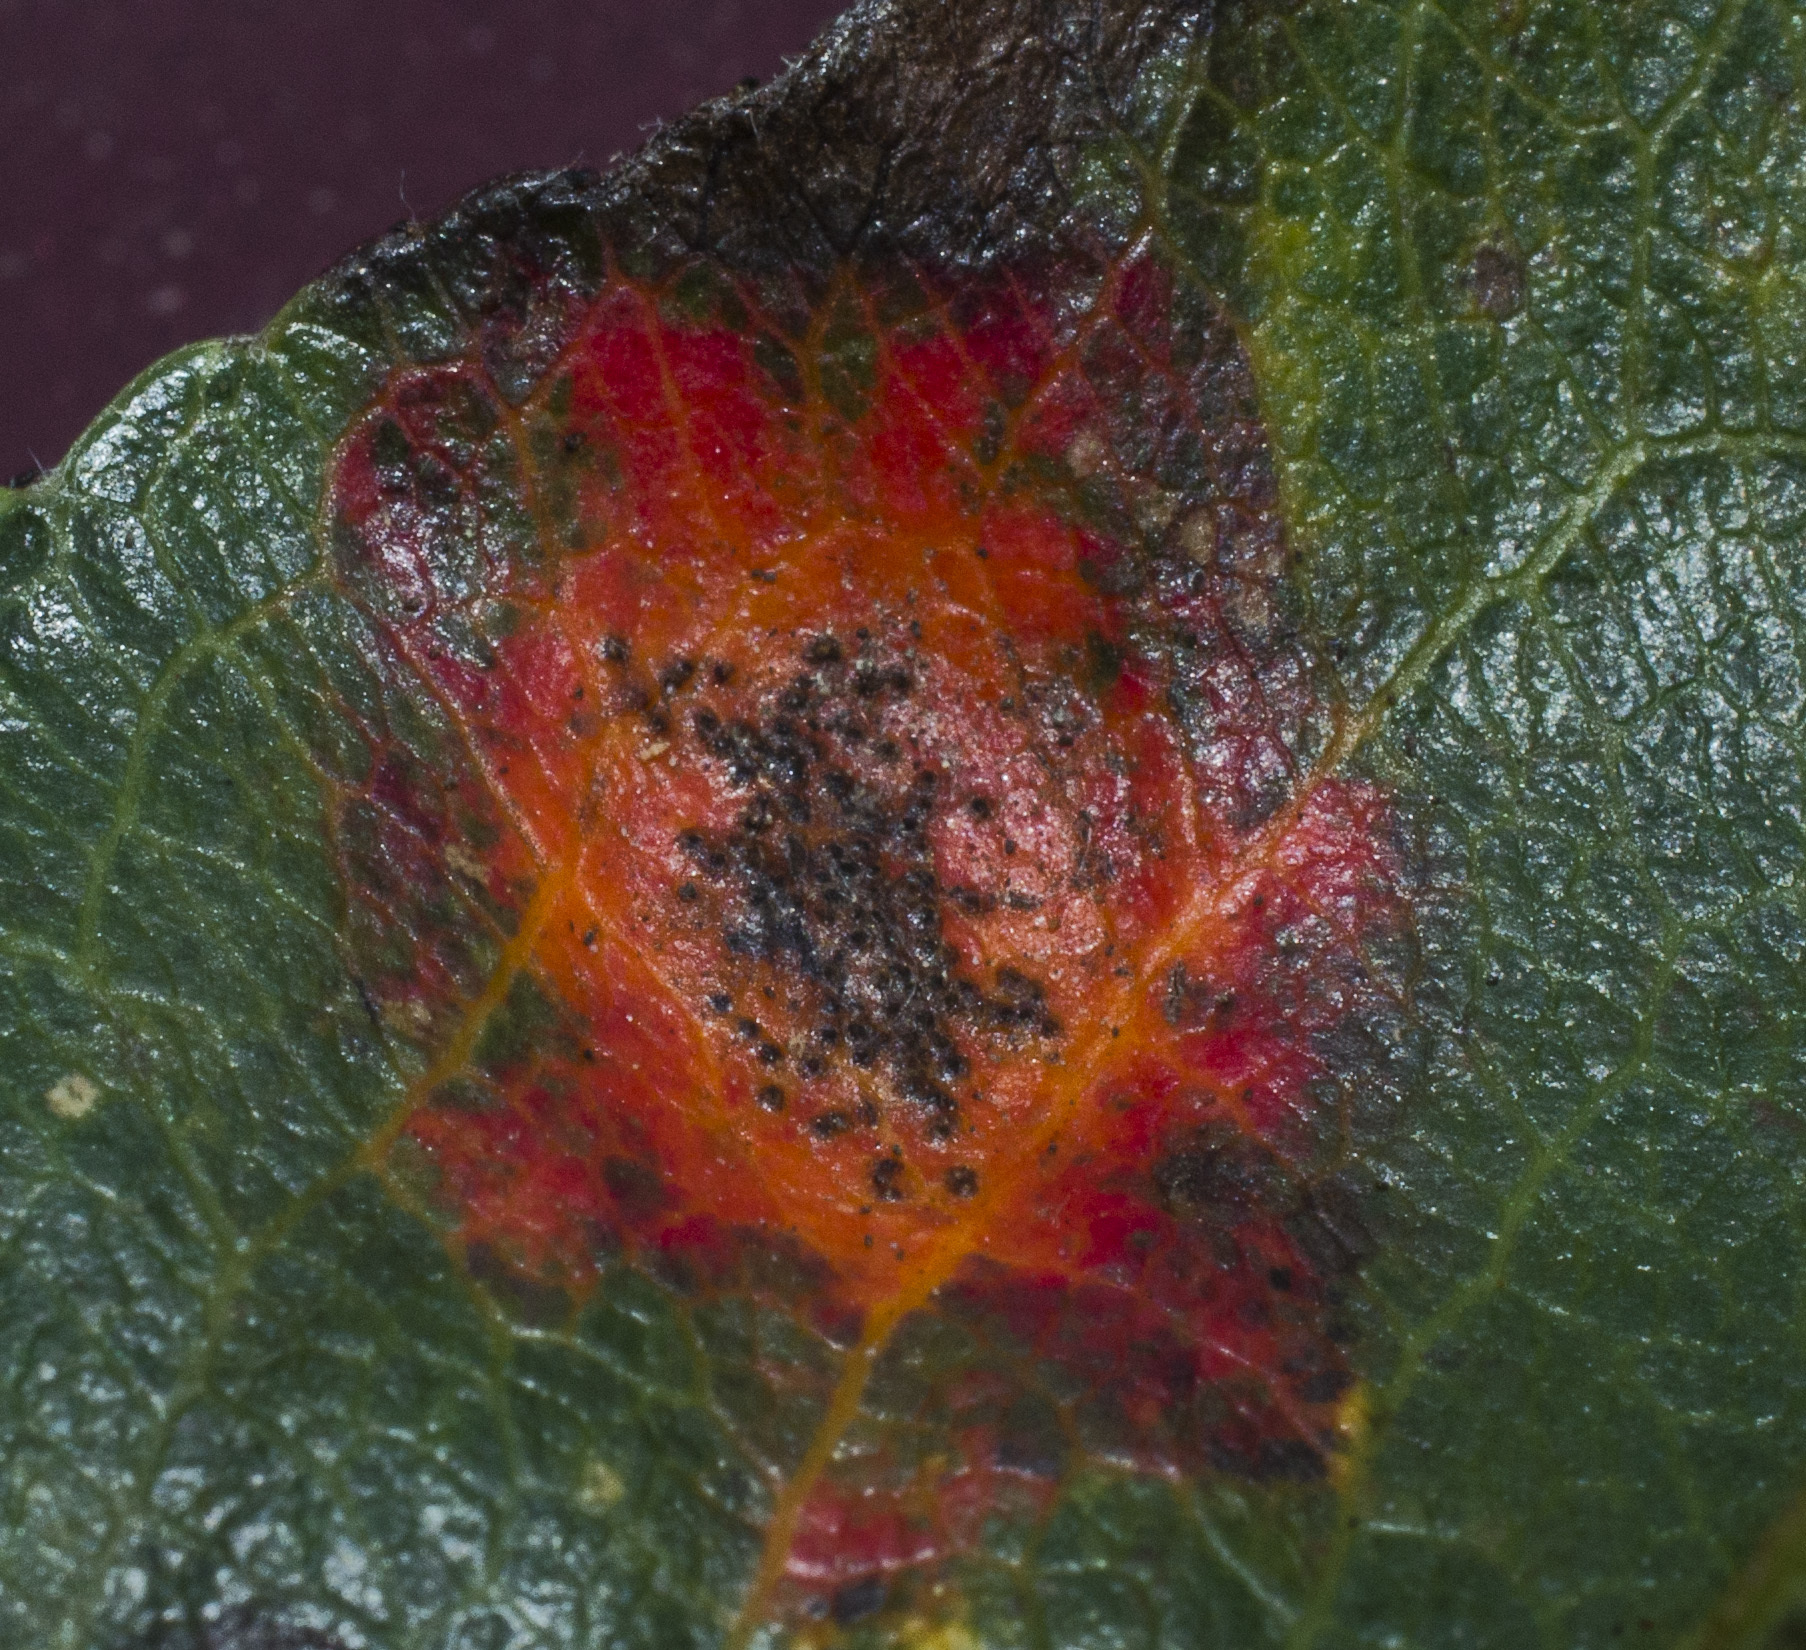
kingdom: Fungi
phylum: Basidiomycota
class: Pucciniomycetes
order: Pucciniales
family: Gymnosporangiaceae
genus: Gymnosporangium
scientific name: Gymnosporangium sabinae
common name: Pear trellis rust fungus
